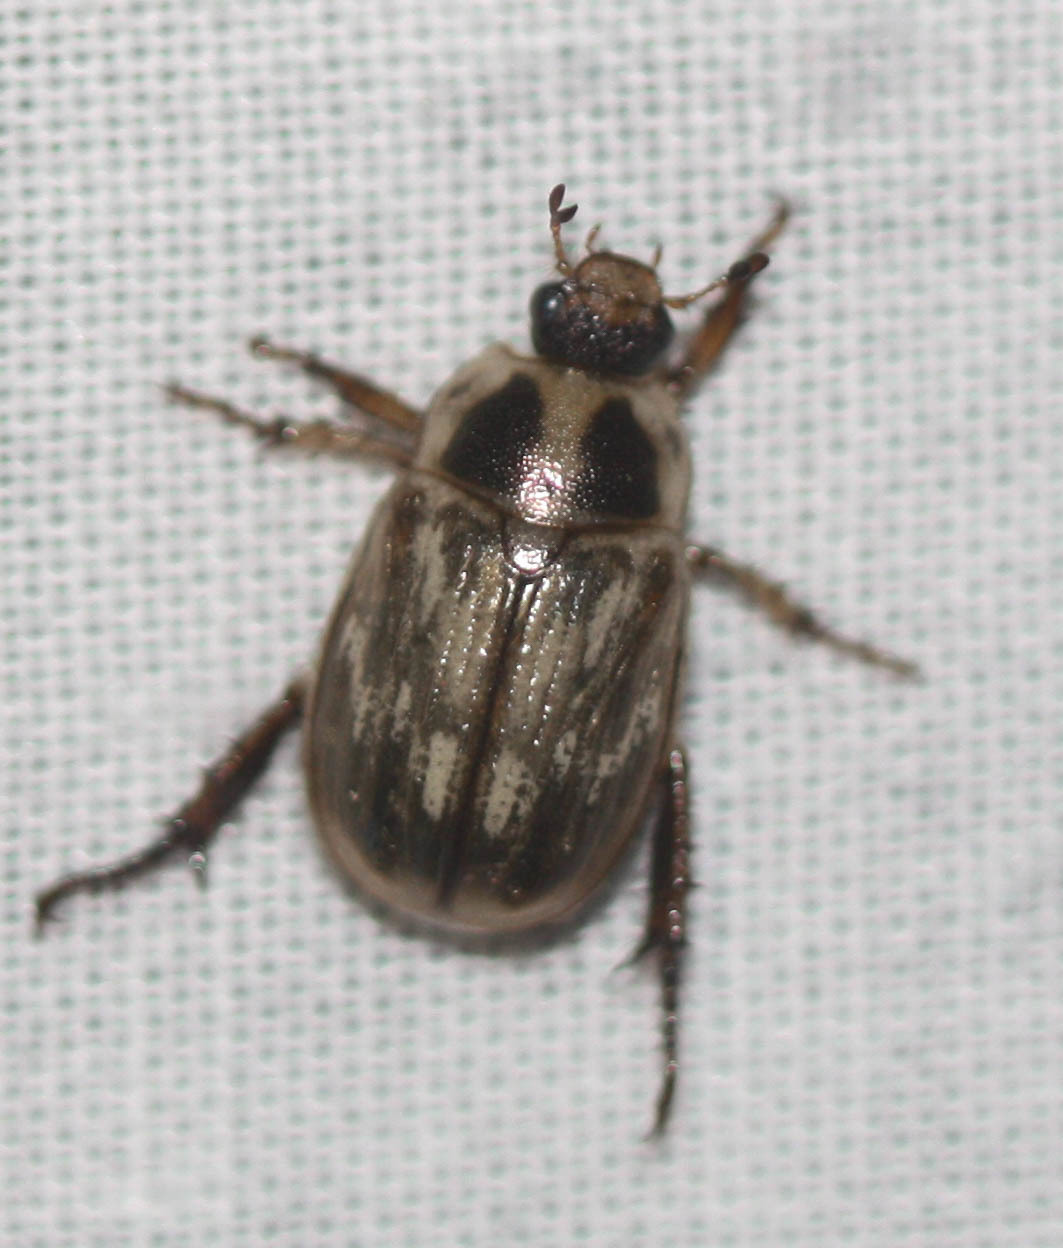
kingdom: Animalia
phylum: Arthropoda
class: Insecta
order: Coleoptera
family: Scarabaeidae
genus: Exomala
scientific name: Exomala orientalis
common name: Oriental beetle
